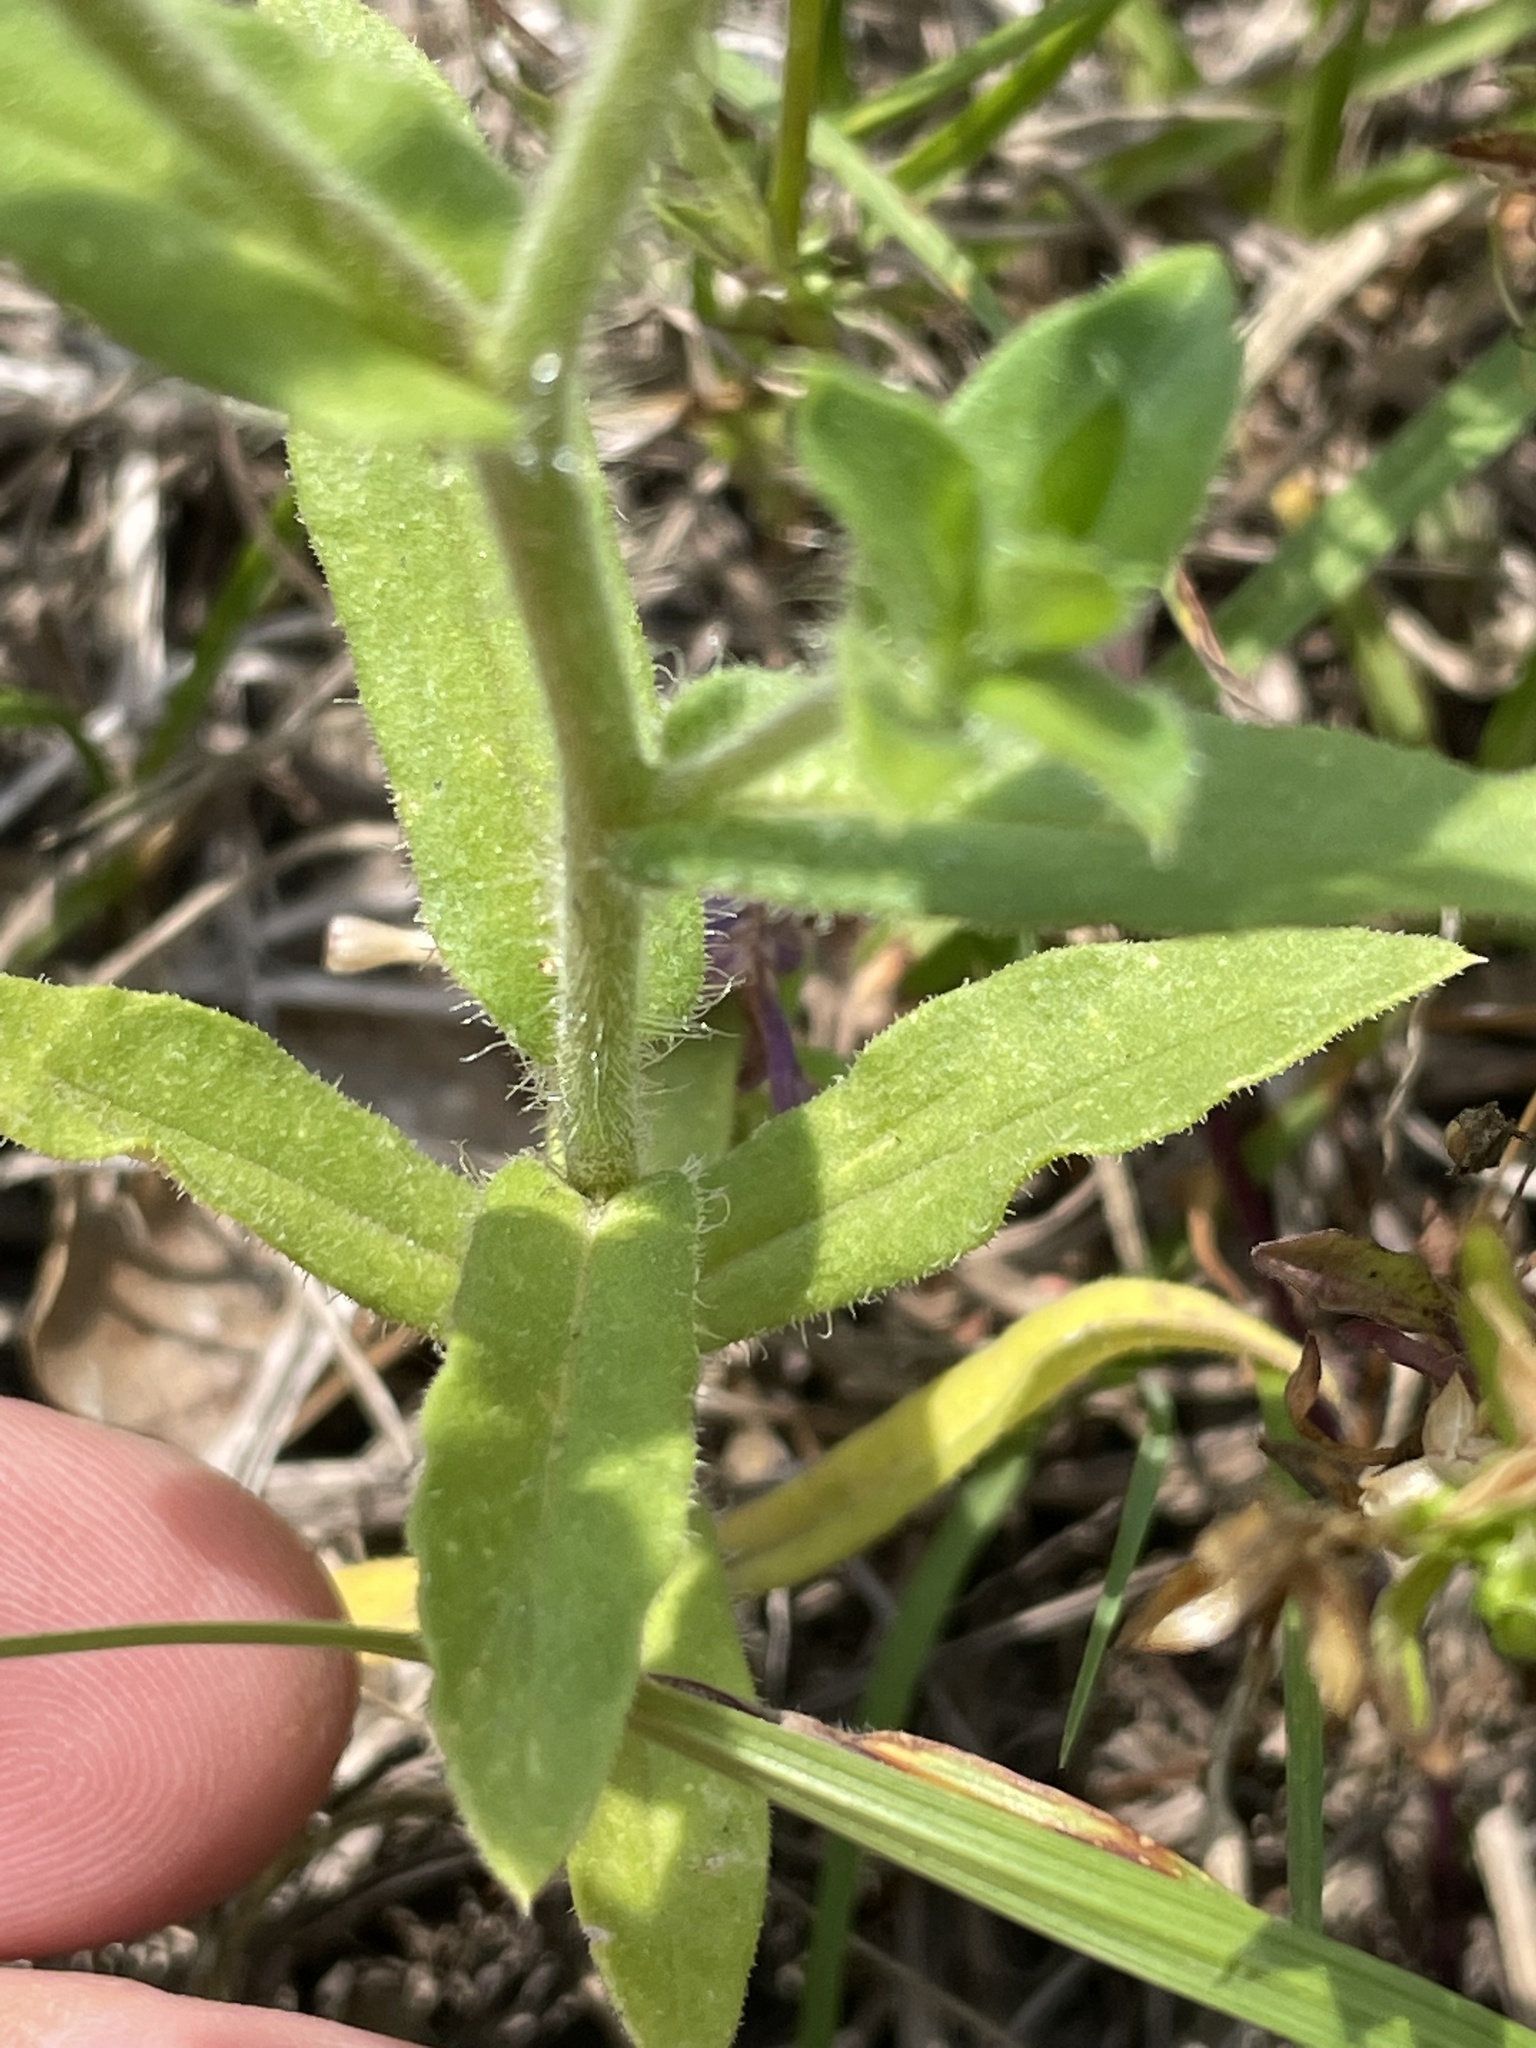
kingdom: Plantae
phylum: Tracheophyta
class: Magnoliopsida
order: Ericales
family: Polemoniaceae
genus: Phlox
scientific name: Phlox drummondii
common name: Drummond's phlox
